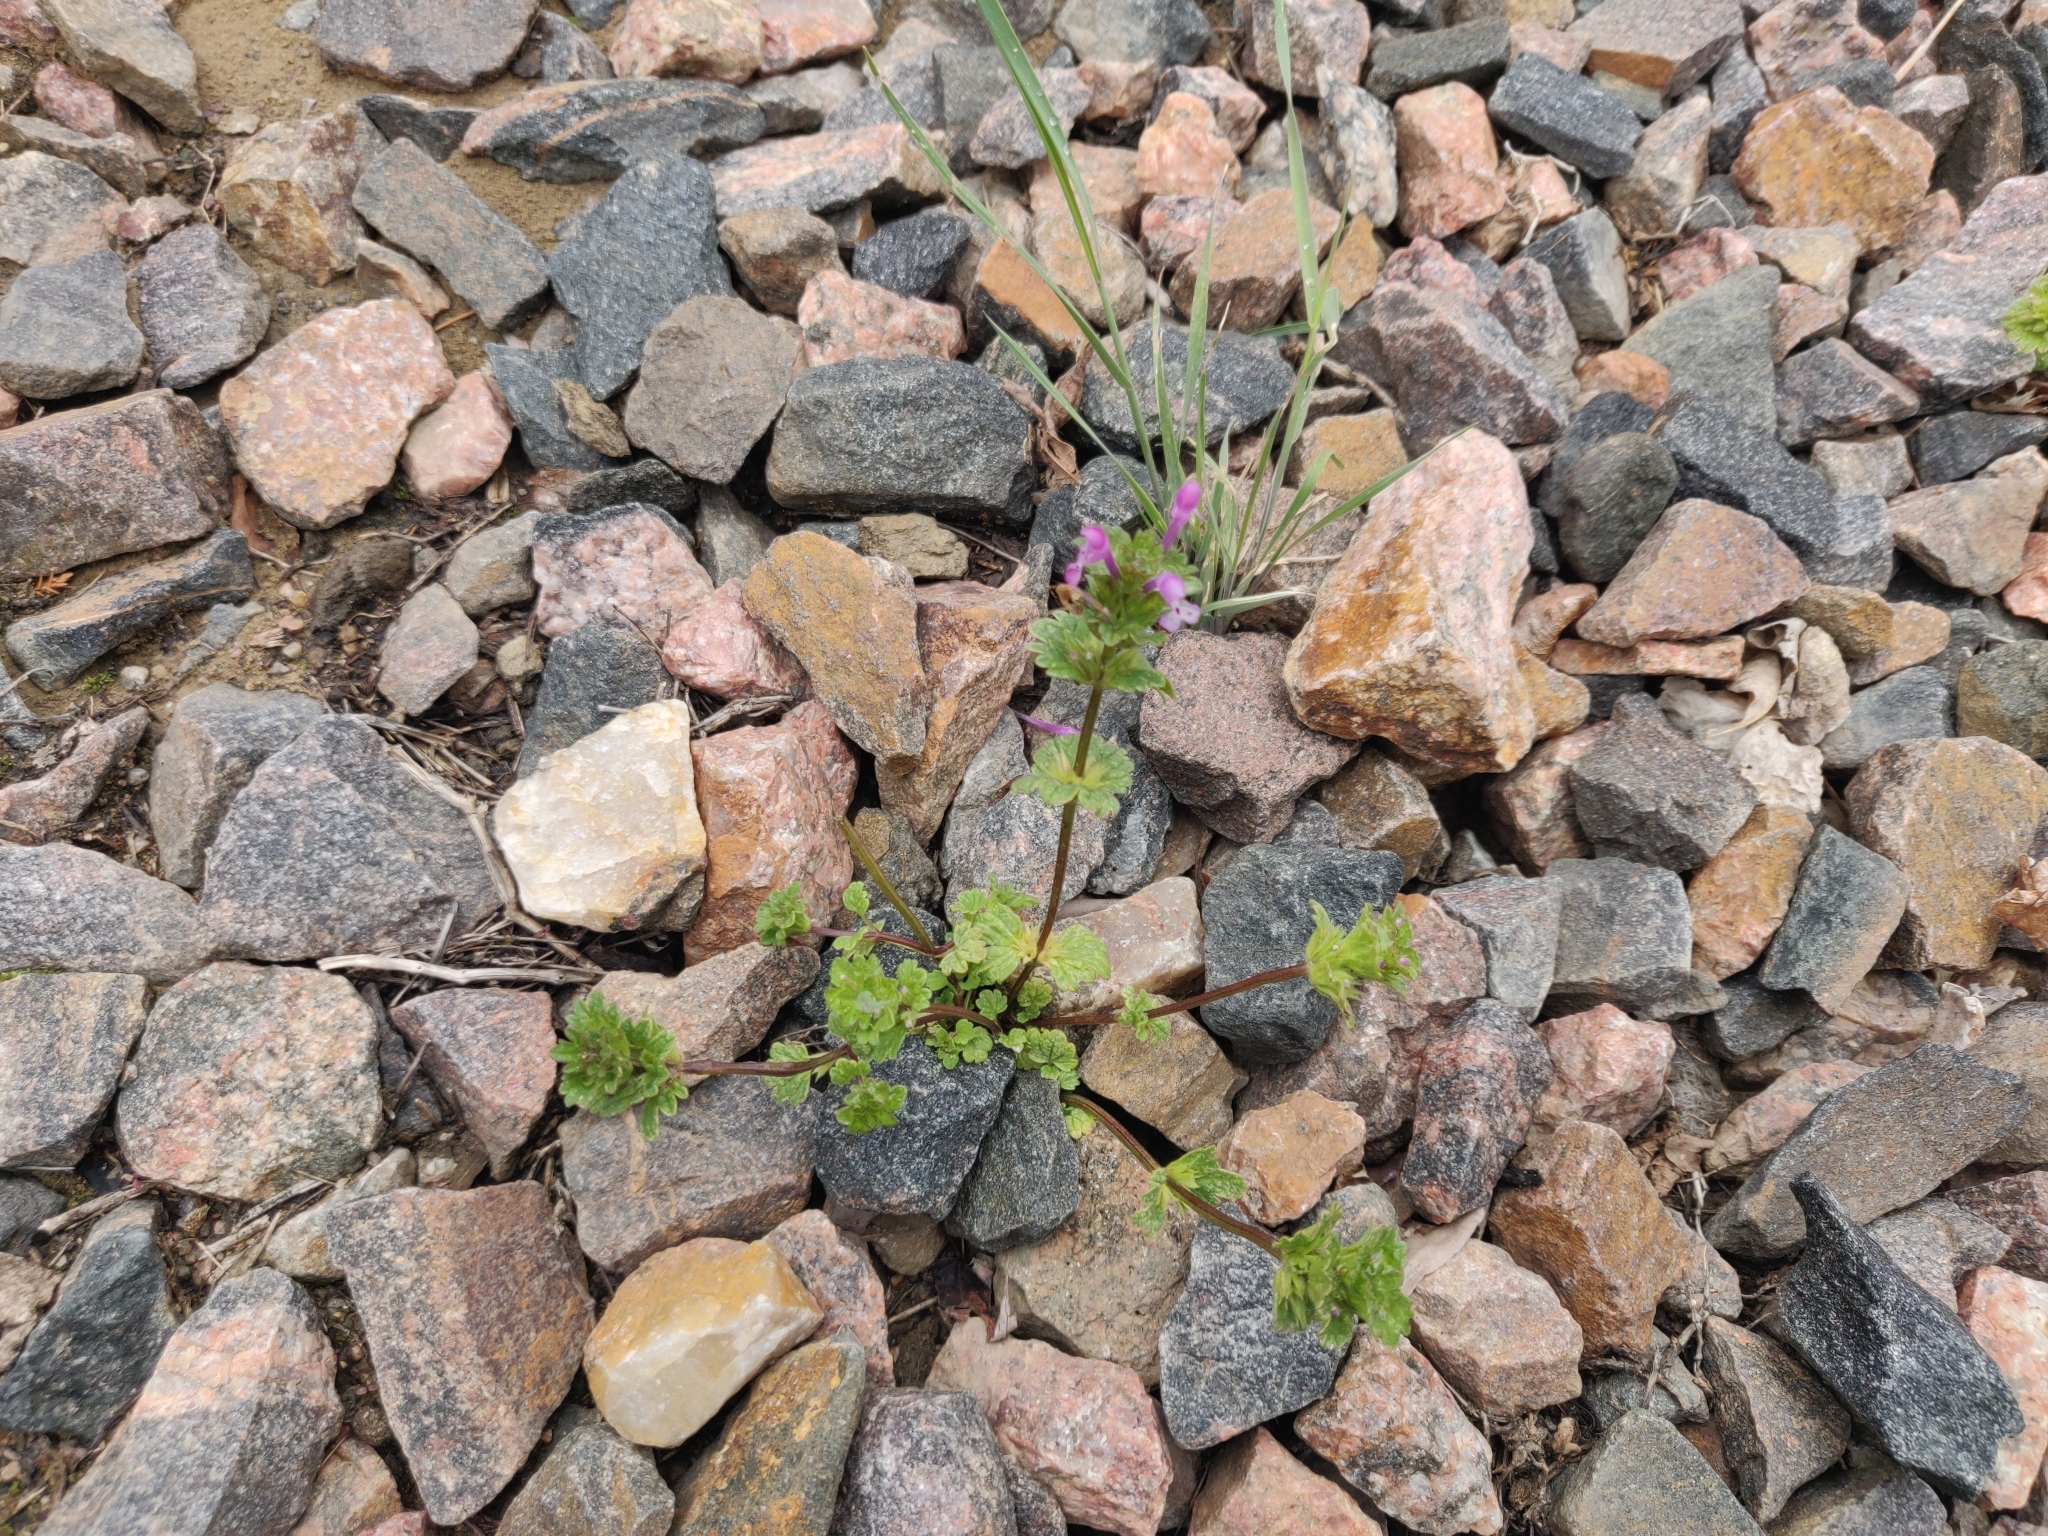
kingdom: Plantae
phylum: Tracheophyta
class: Magnoliopsida
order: Lamiales
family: Lamiaceae
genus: Lamium
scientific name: Lamium amplexicaule
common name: Henbit dead-nettle
